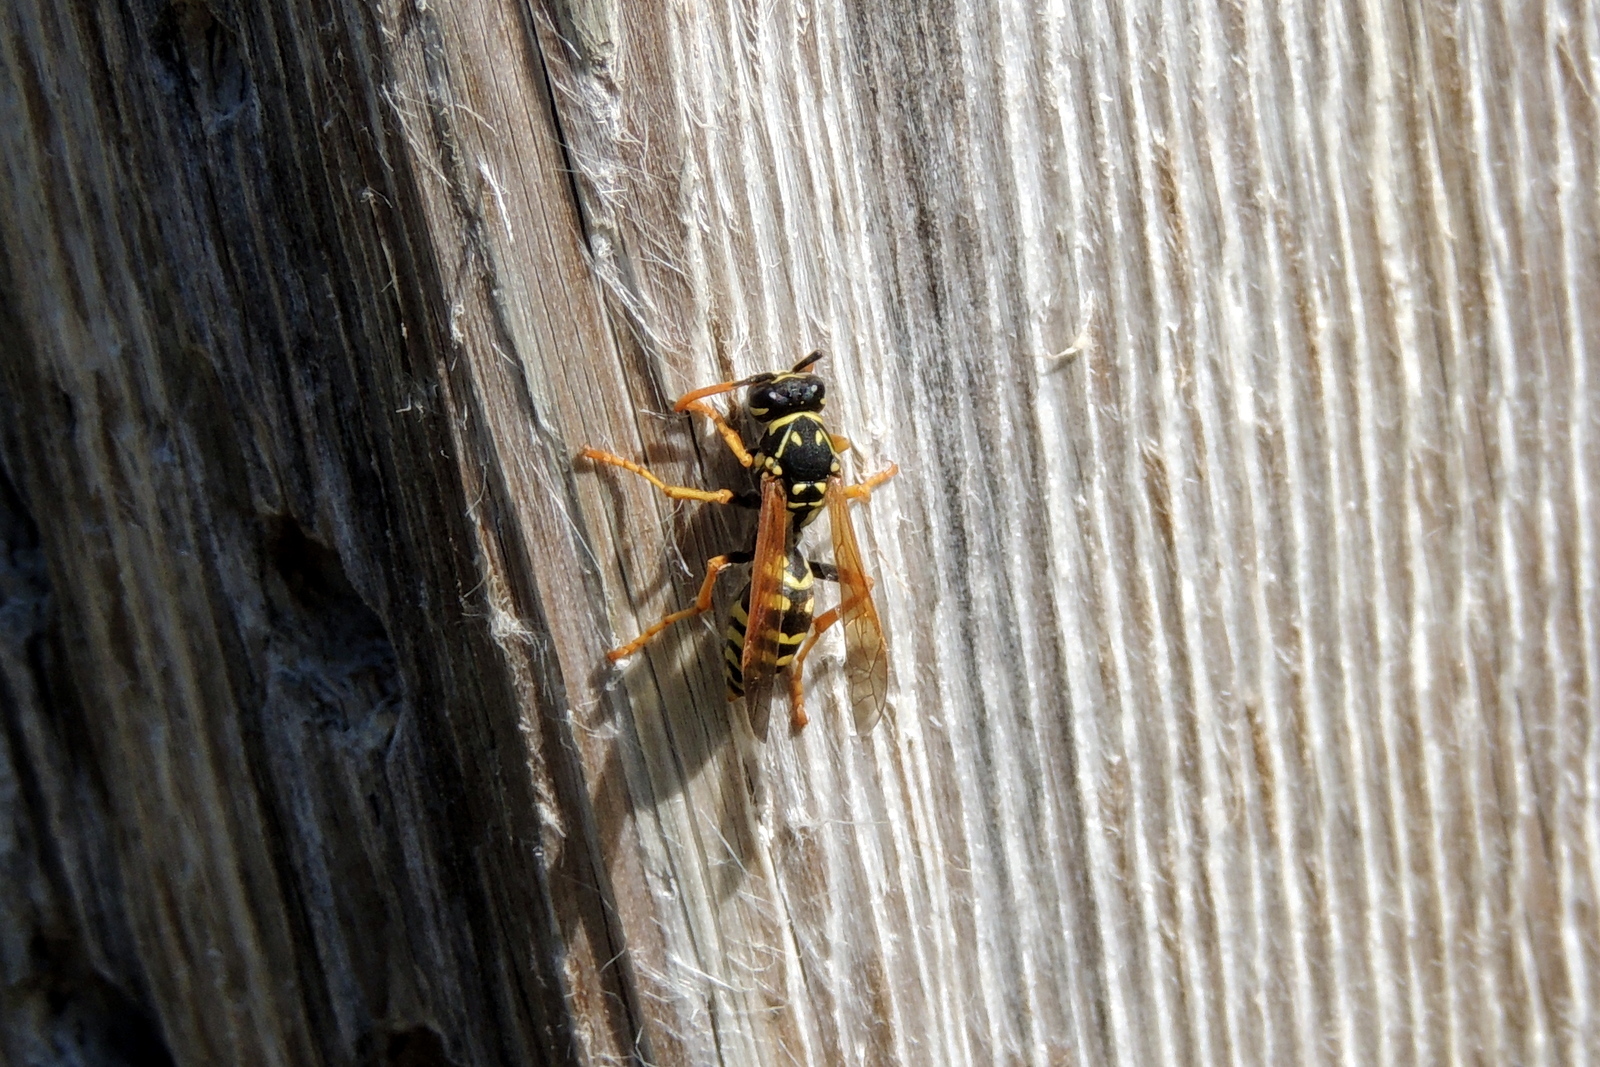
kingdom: Animalia
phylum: Arthropoda
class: Insecta
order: Hymenoptera
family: Eumenidae
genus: Polistes
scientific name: Polistes dominula
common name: Paper wasp
